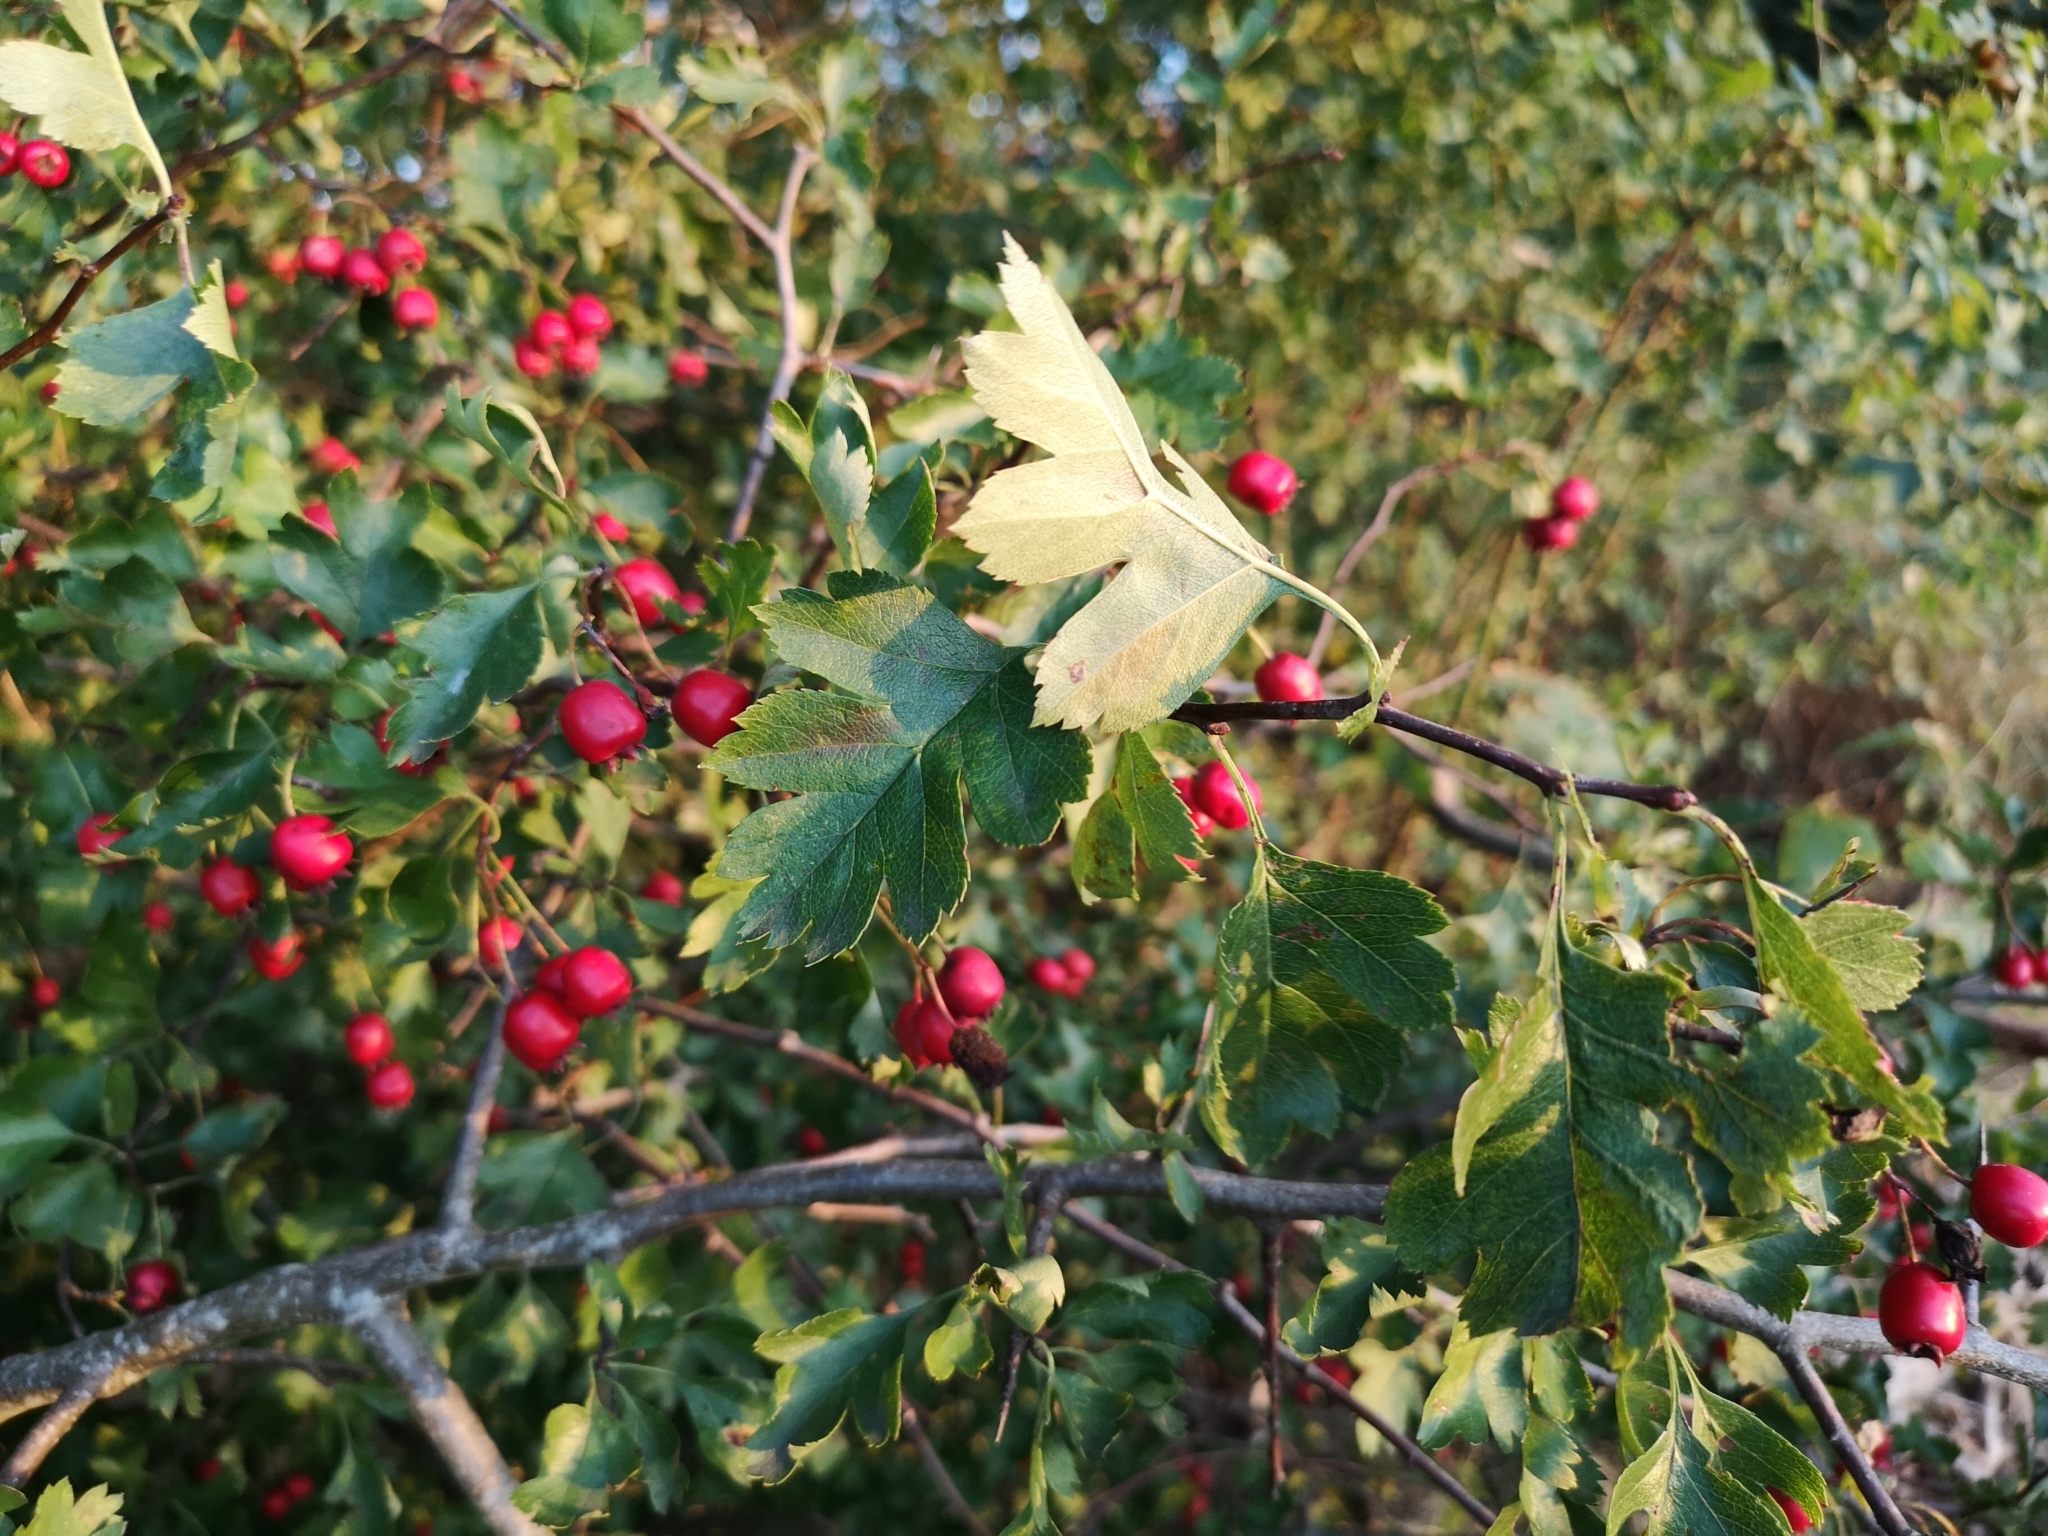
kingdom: Plantae
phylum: Tracheophyta
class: Magnoliopsida
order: Rosales
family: Rosaceae
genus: Crataegus
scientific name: Crataegus rhipidophylla
